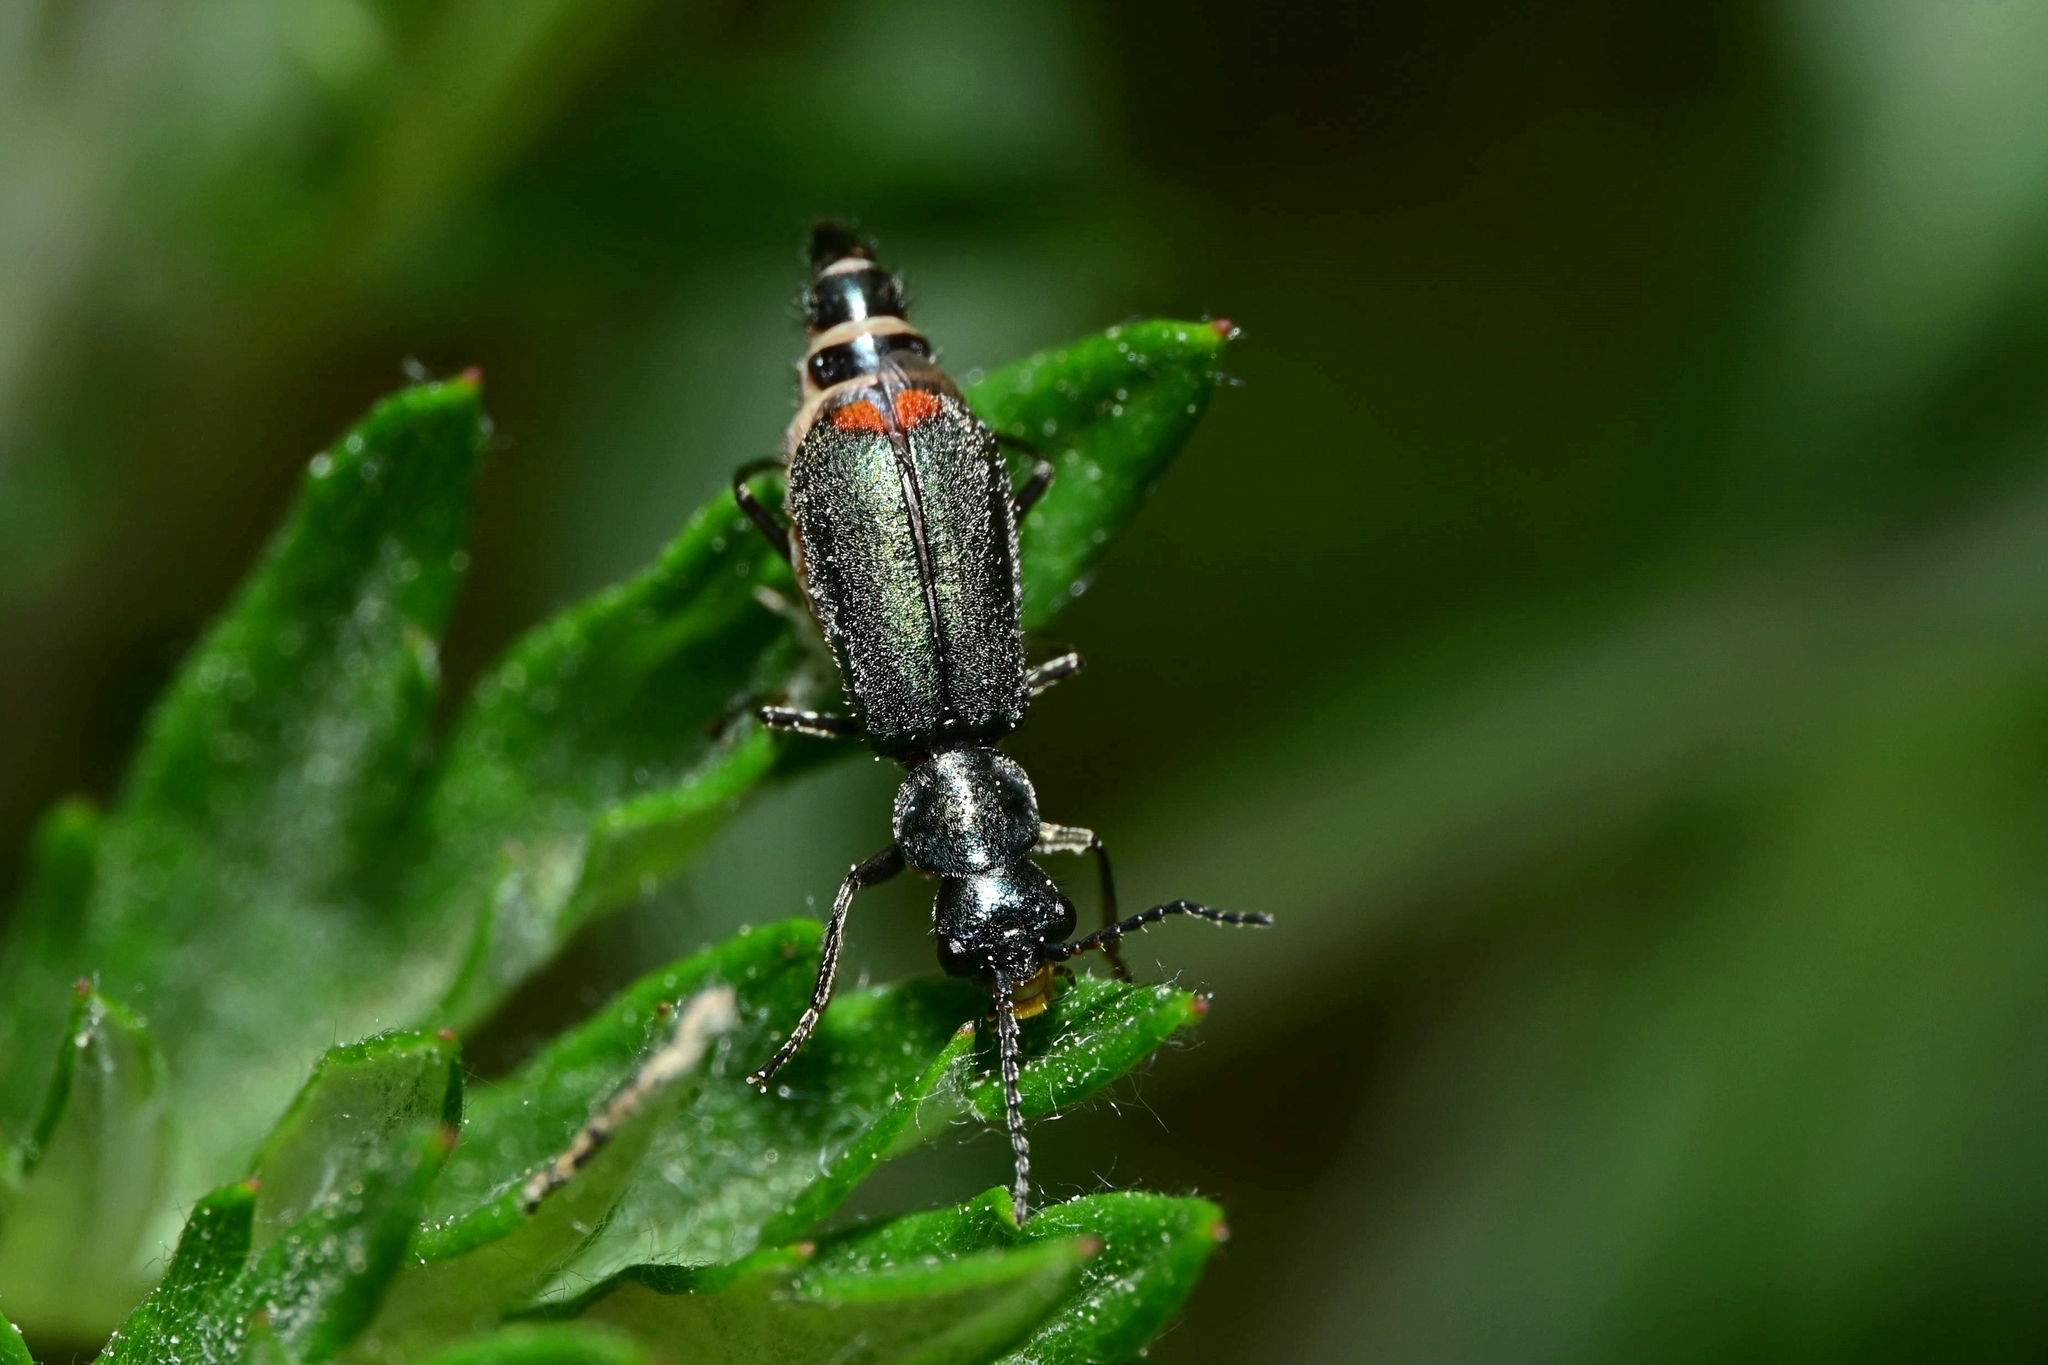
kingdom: Animalia
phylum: Arthropoda
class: Insecta
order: Coleoptera
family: Malachiidae
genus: Cordylepherus
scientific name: Cordylepherus viridis
